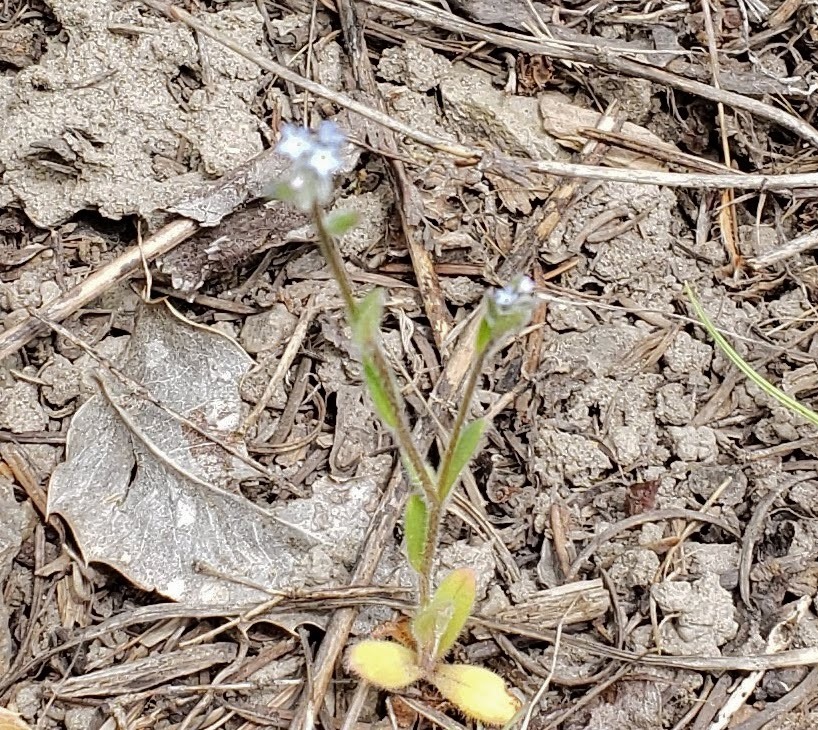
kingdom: Plantae
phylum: Tracheophyta
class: Magnoliopsida
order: Boraginales
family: Boraginaceae
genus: Myosotis
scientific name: Myosotis stricta
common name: Strict forget-me-not
